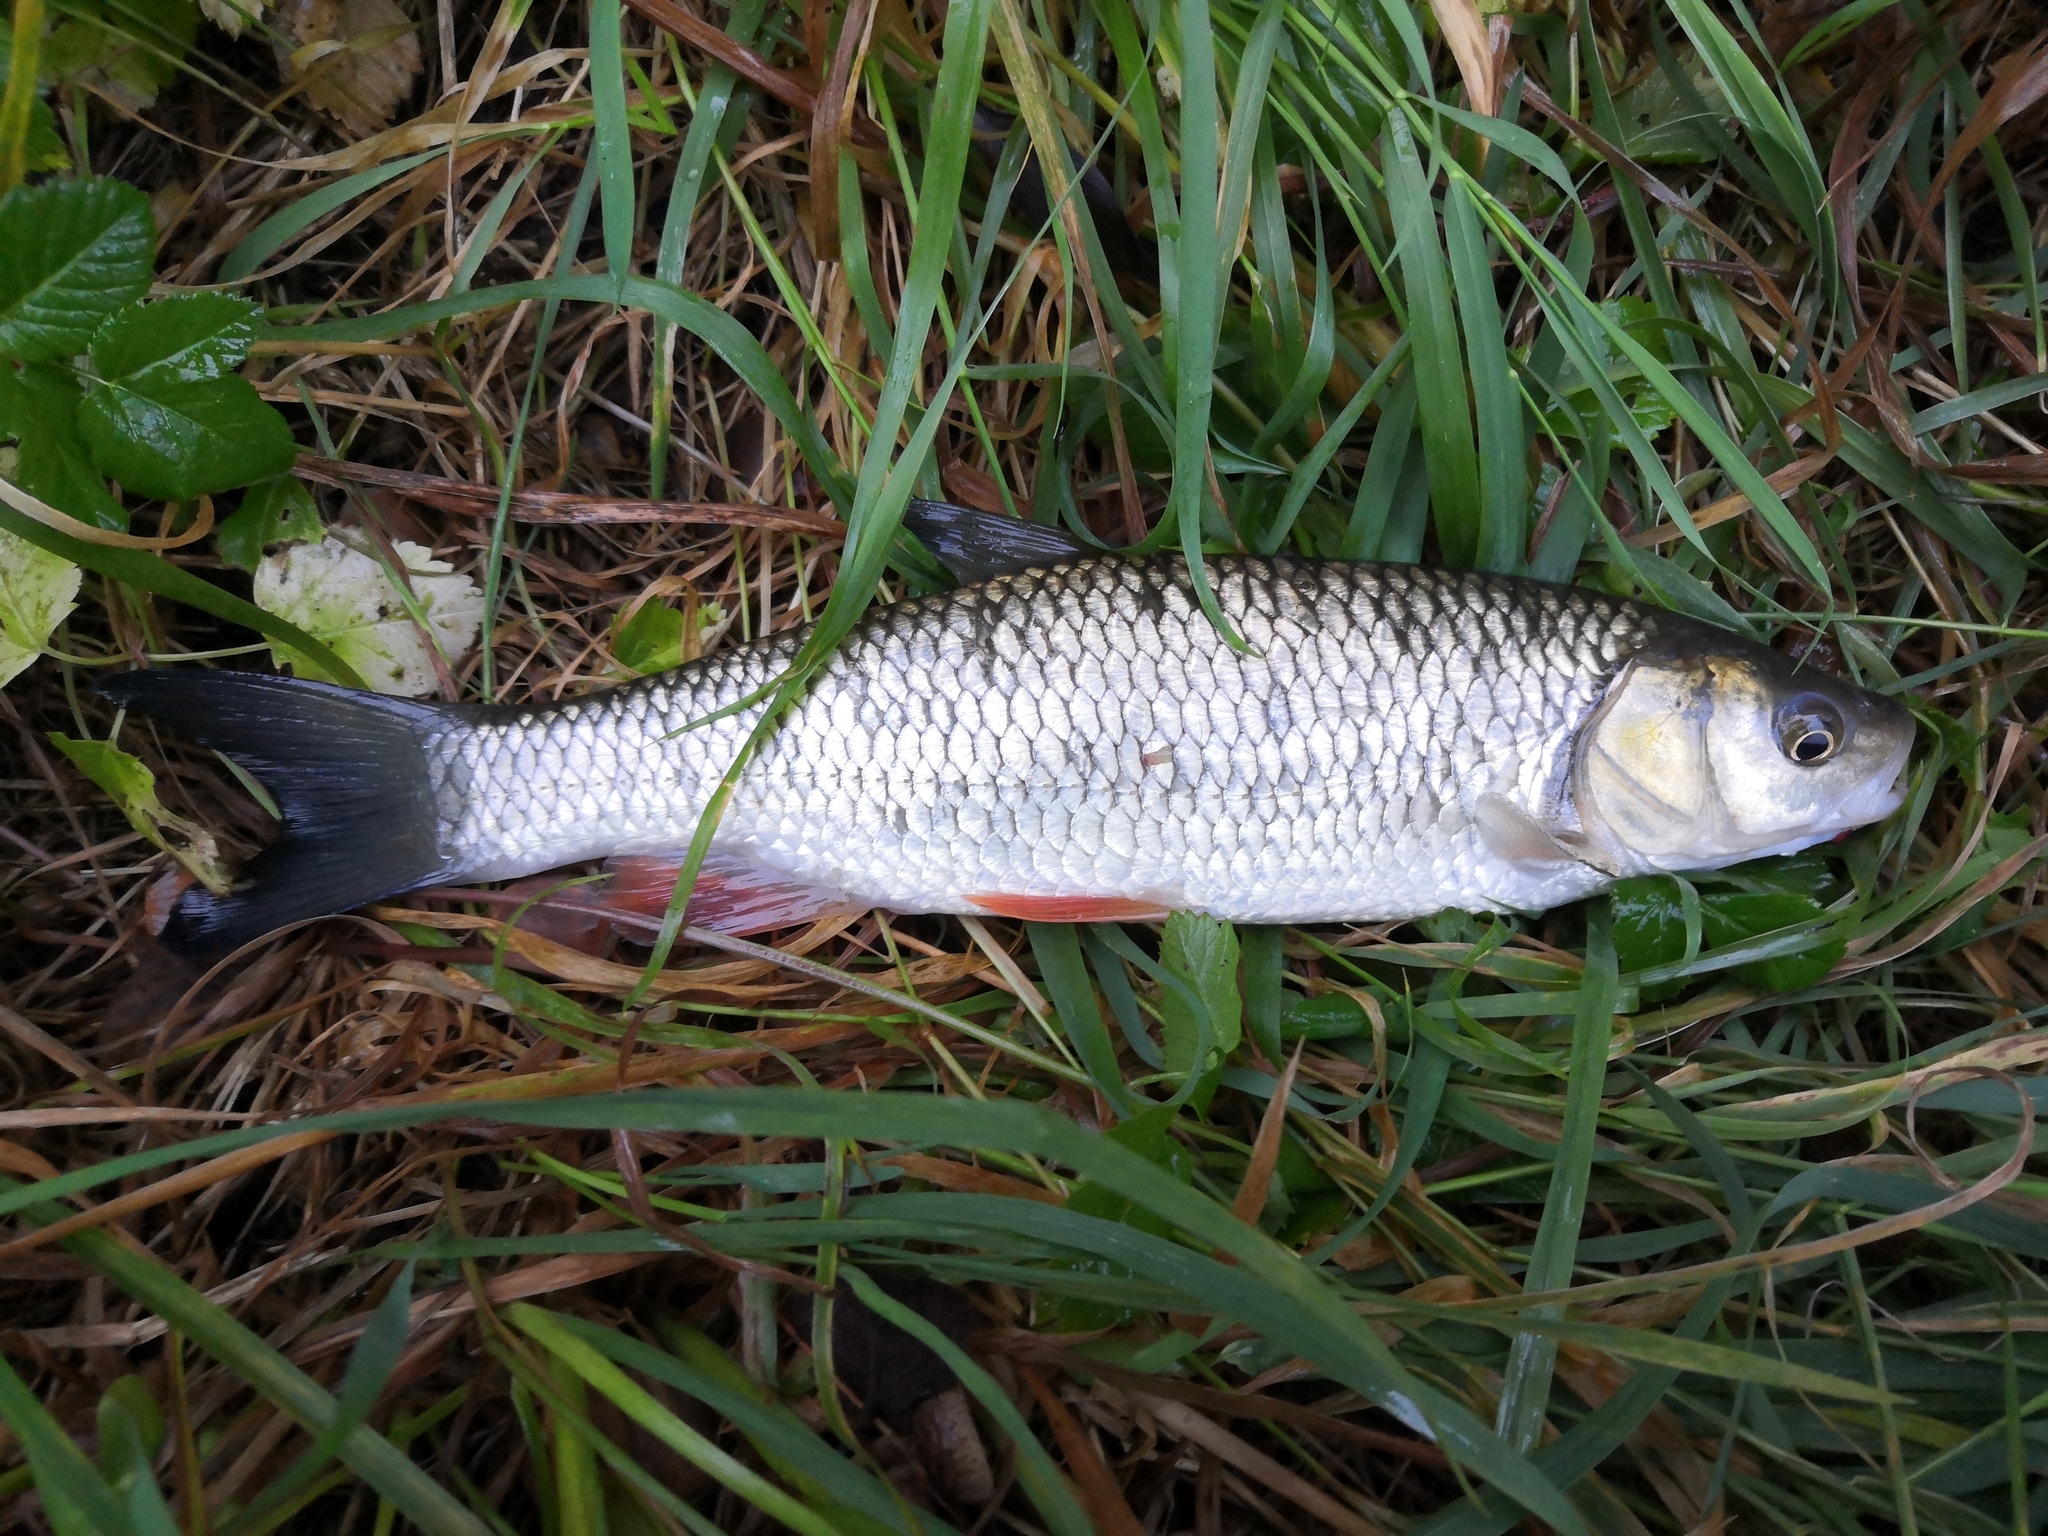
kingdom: Animalia
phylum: Chordata
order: Cypriniformes
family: Cyprinidae
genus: Squalius
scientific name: Squalius cephalus
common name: Chub
